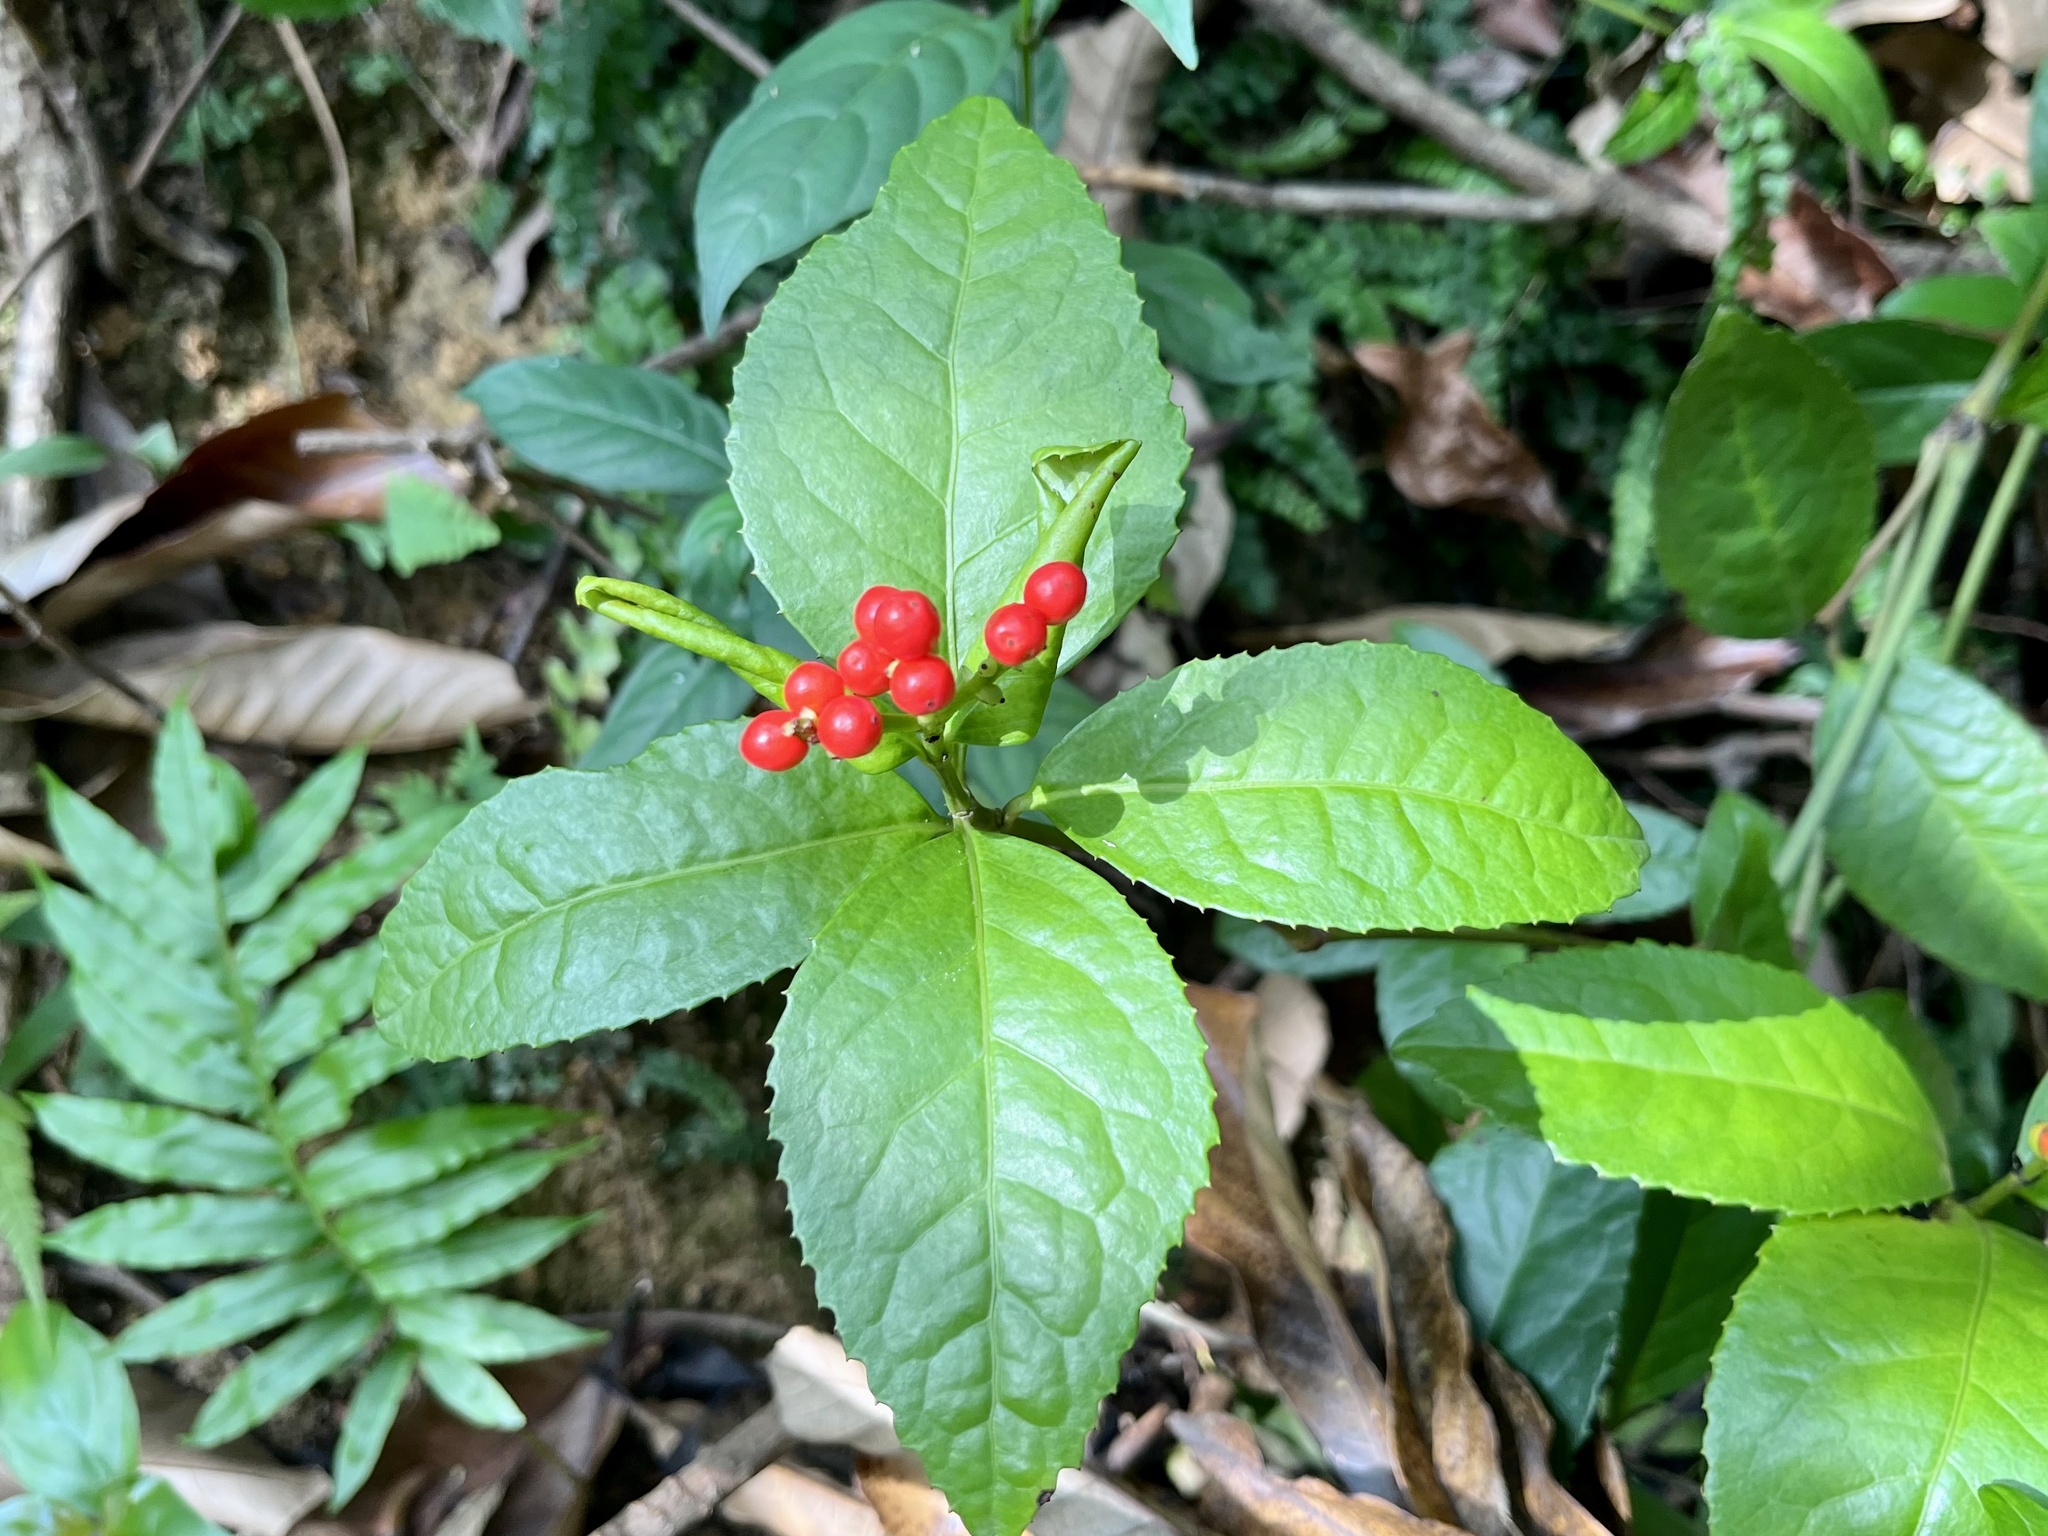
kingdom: Plantae
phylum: Tracheophyta
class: Magnoliopsida
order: Chloranthales
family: Chloranthaceae
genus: Sarcandra
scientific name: Sarcandra glabra
